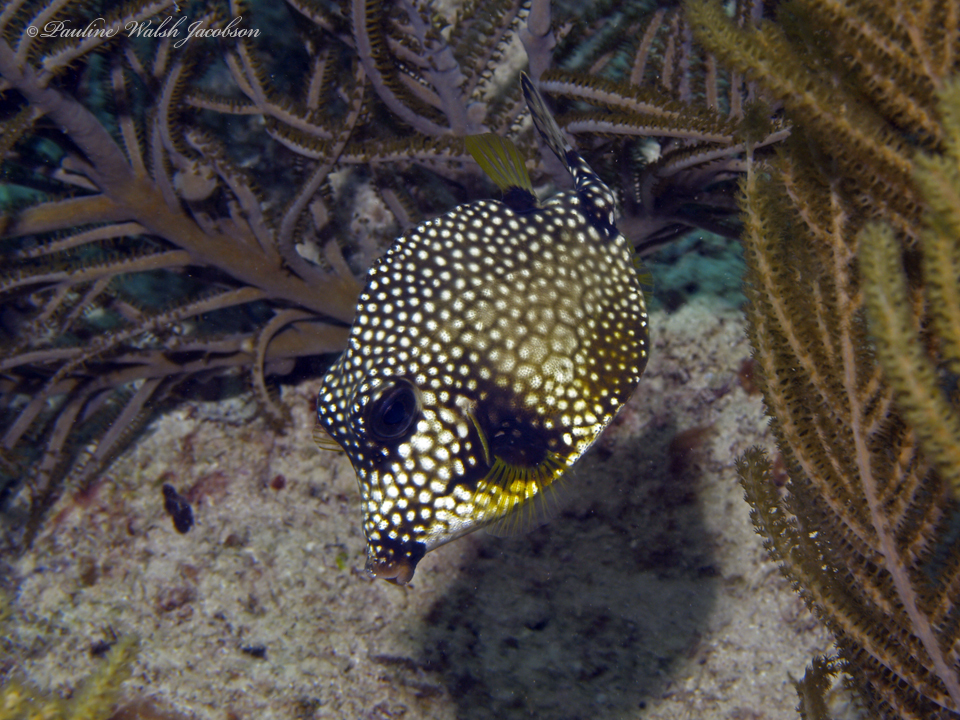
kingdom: Animalia
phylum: Chordata
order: Tetraodontiformes
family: Ostraciidae
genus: Lactophrys
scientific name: Lactophrys triqueter
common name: Smooth trunkfish
